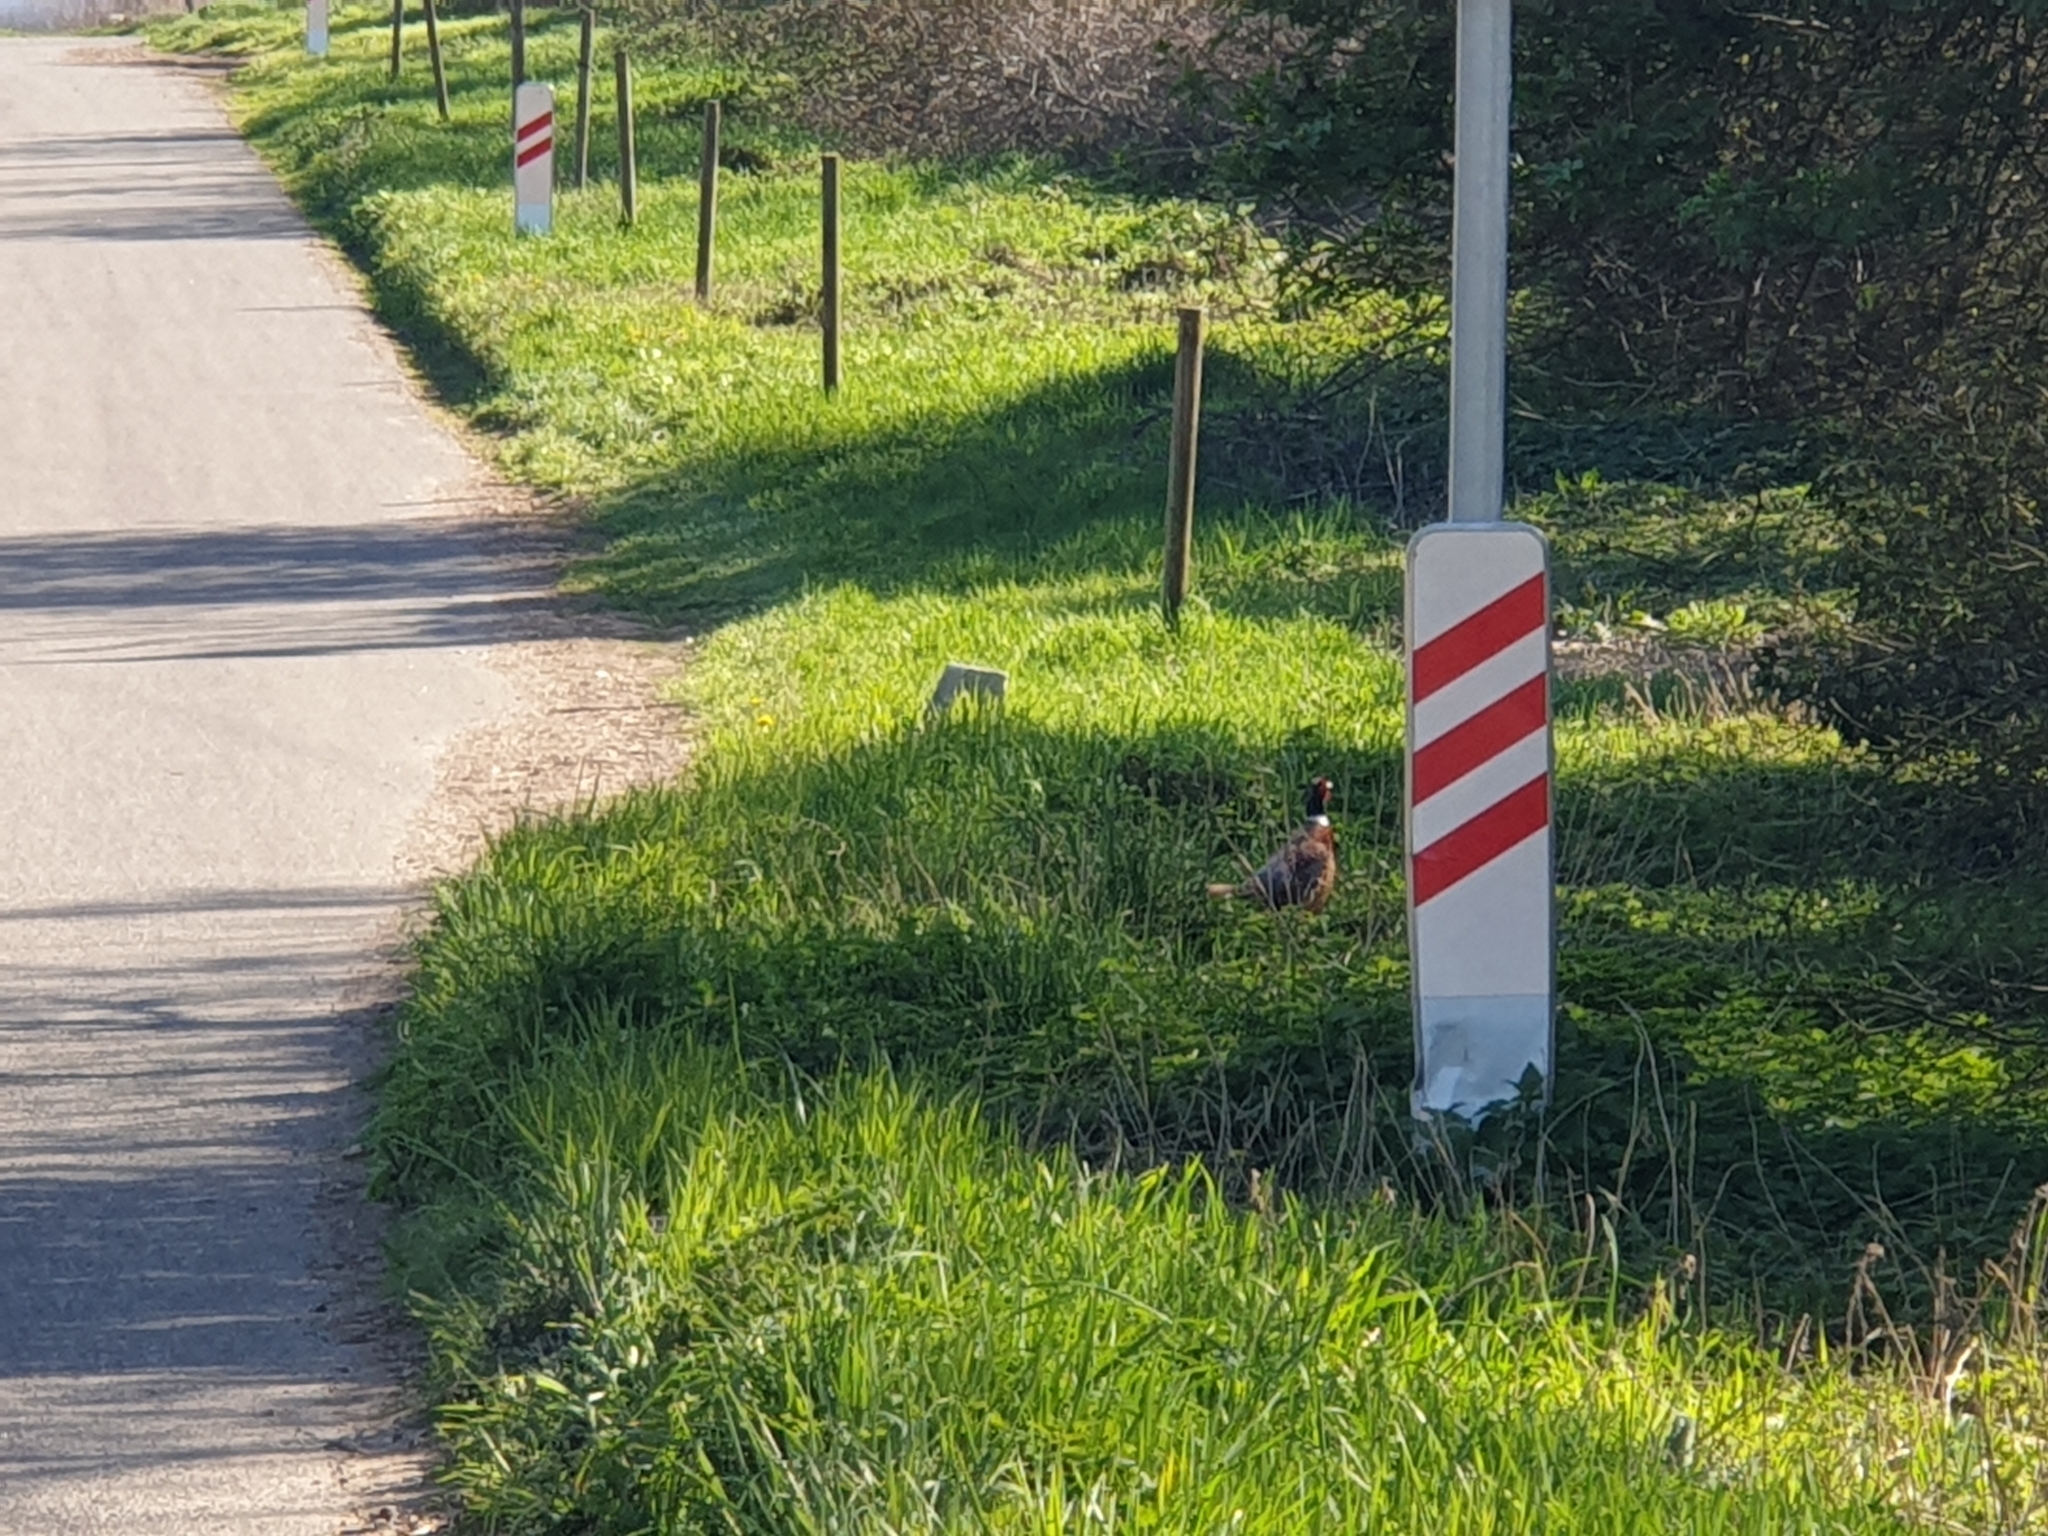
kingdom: Animalia
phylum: Chordata
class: Aves
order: Galliformes
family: Phasianidae
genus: Phasianus
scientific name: Phasianus colchicus
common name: Common pheasant
